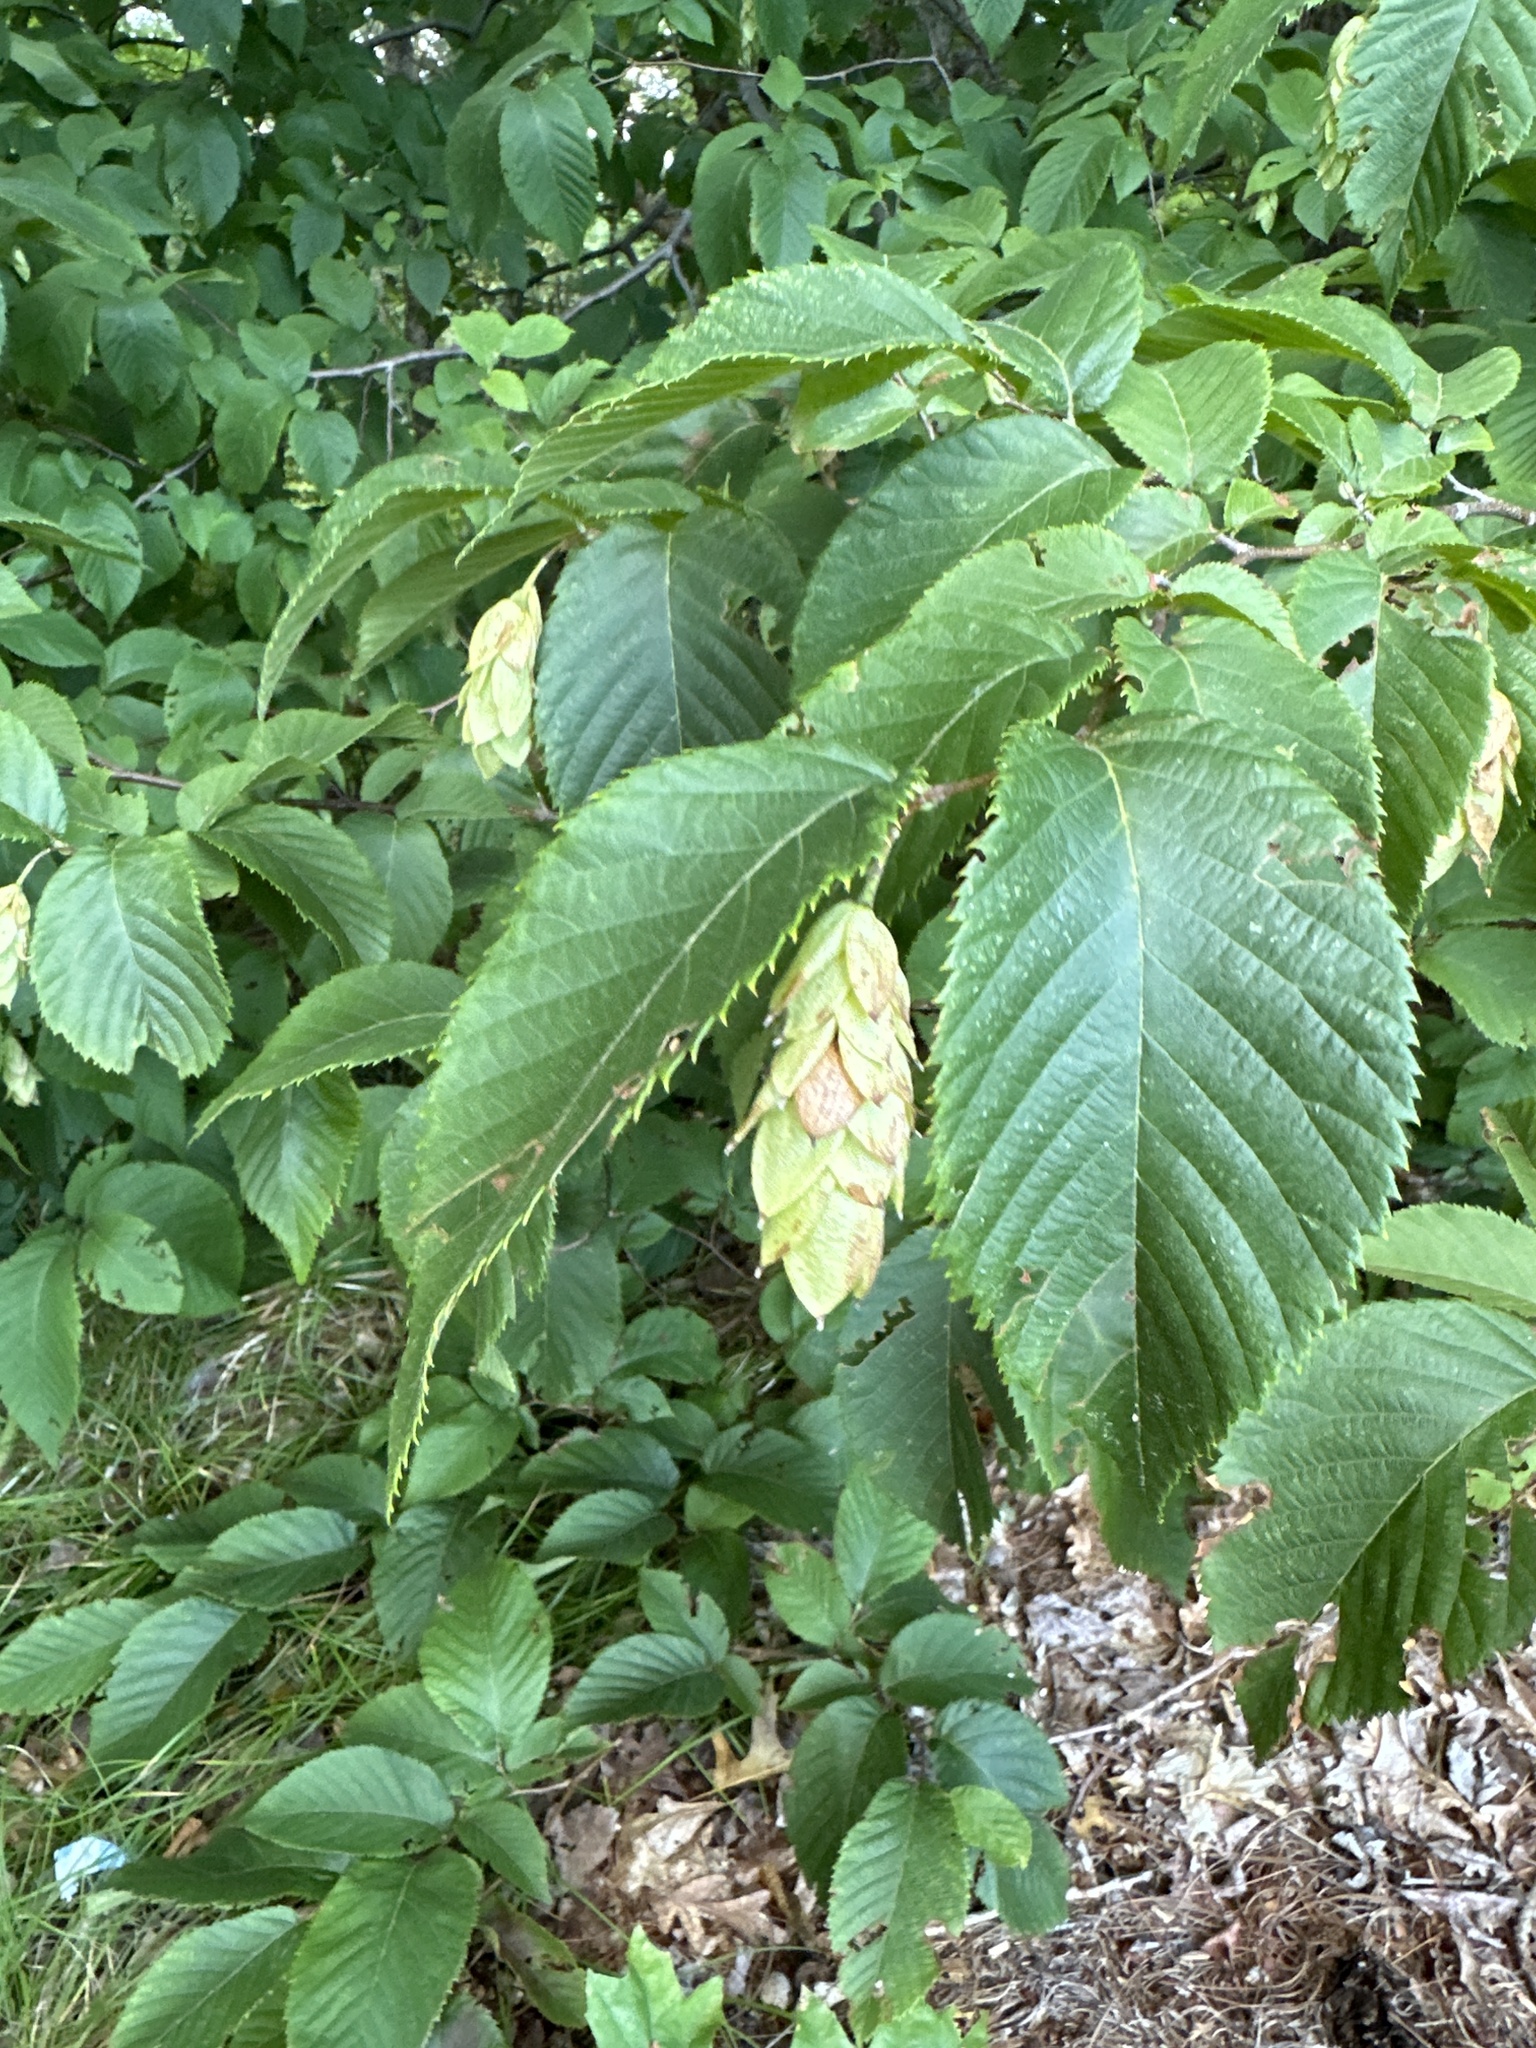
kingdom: Plantae
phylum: Tracheophyta
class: Magnoliopsida
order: Fagales
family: Betulaceae
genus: Ostrya
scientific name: Ostrya virginiana
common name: Ironwood
